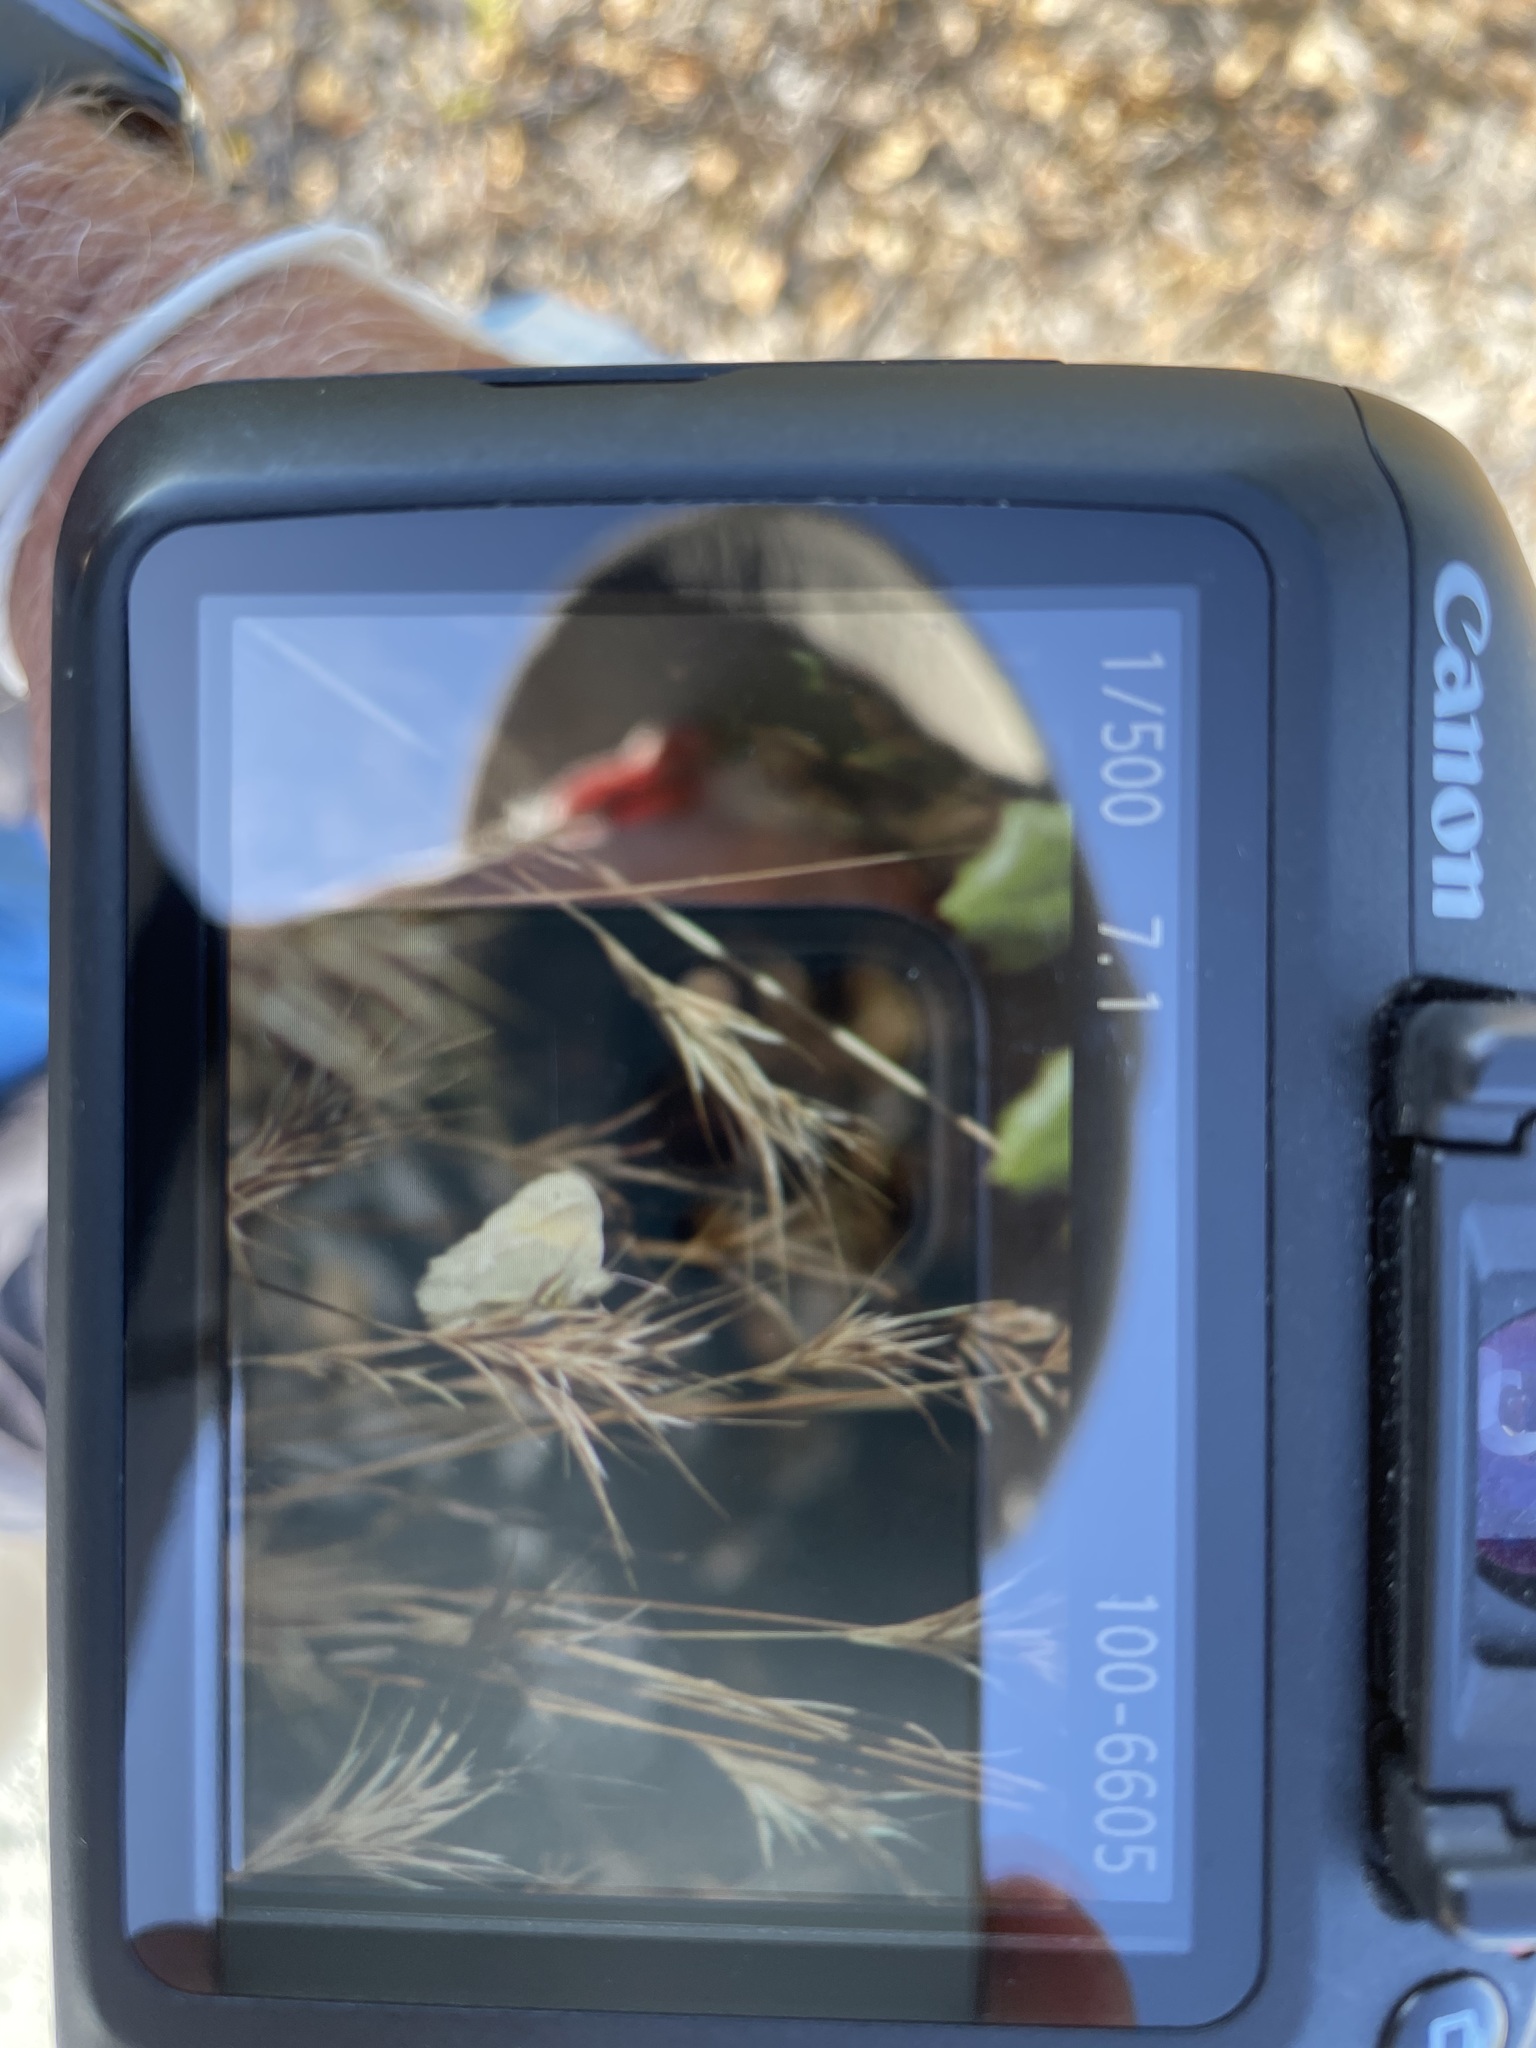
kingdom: Animalia
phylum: Arthropoda
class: Insecta
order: Lepidoptera
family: Nymphalidae
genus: Coenonympha
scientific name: Coenonympha california
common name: Common ringlet
